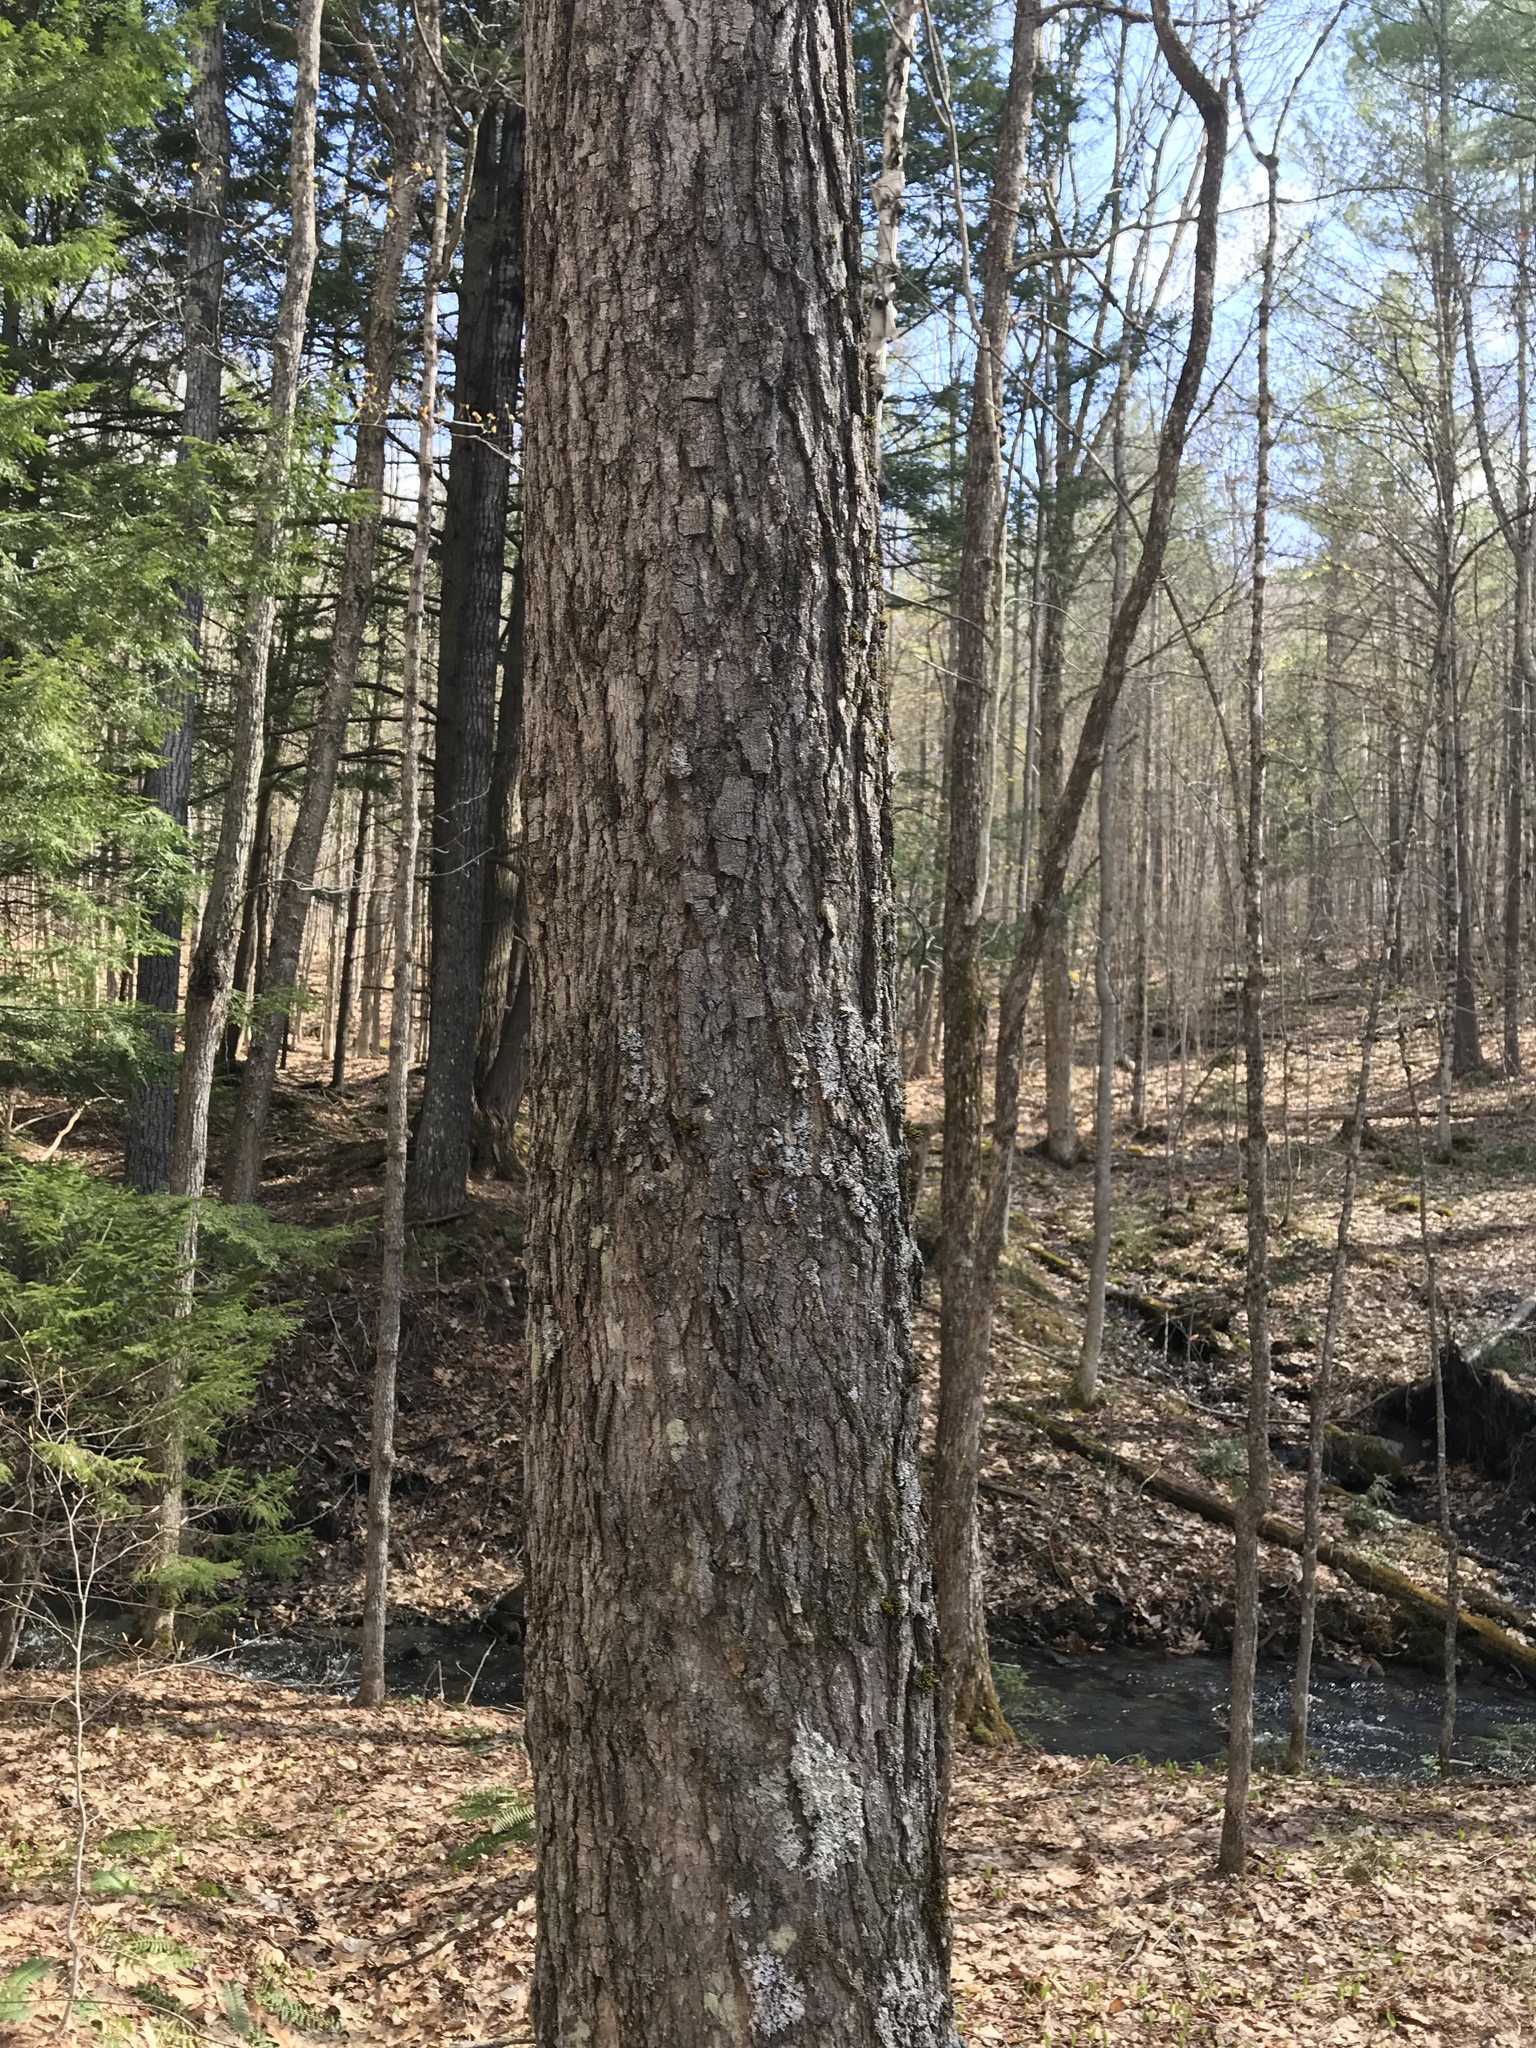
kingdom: Plantae
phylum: Tracheophyta
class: Magnoliopsida
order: Sapindales
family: Sapindaceae
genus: Acer
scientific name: Acer saccharum
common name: Sugar maple
